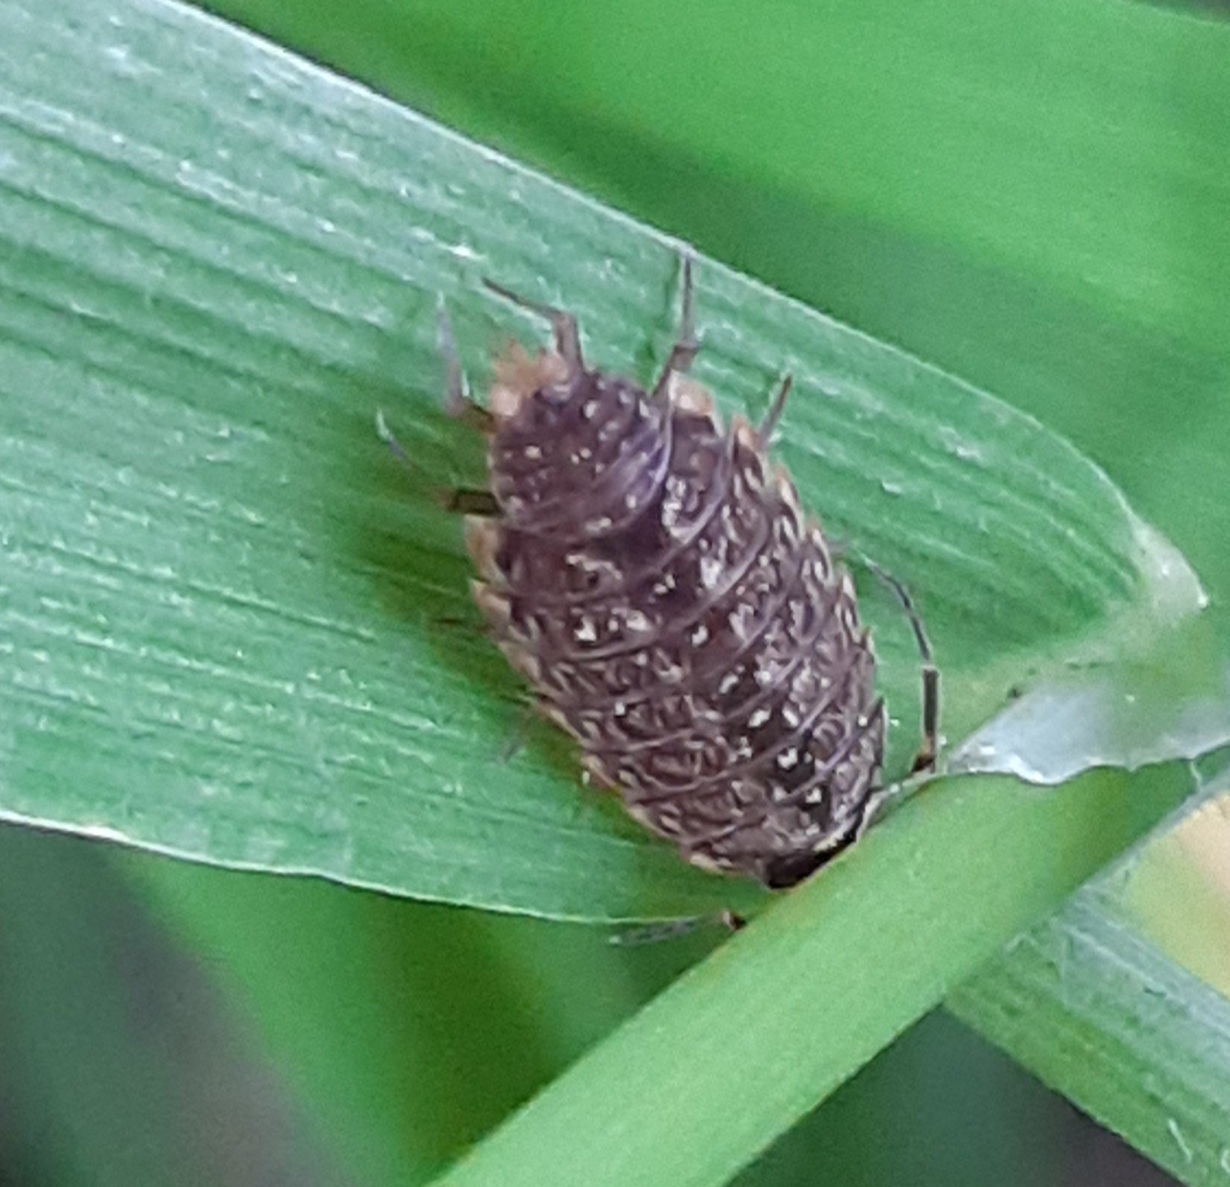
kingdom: Animalia
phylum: Arthropoda
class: Malacostraca
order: Isopoda
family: Philosciidae
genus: Philoscia
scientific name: Philoscia muscorum
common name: Common striped woodlouse
